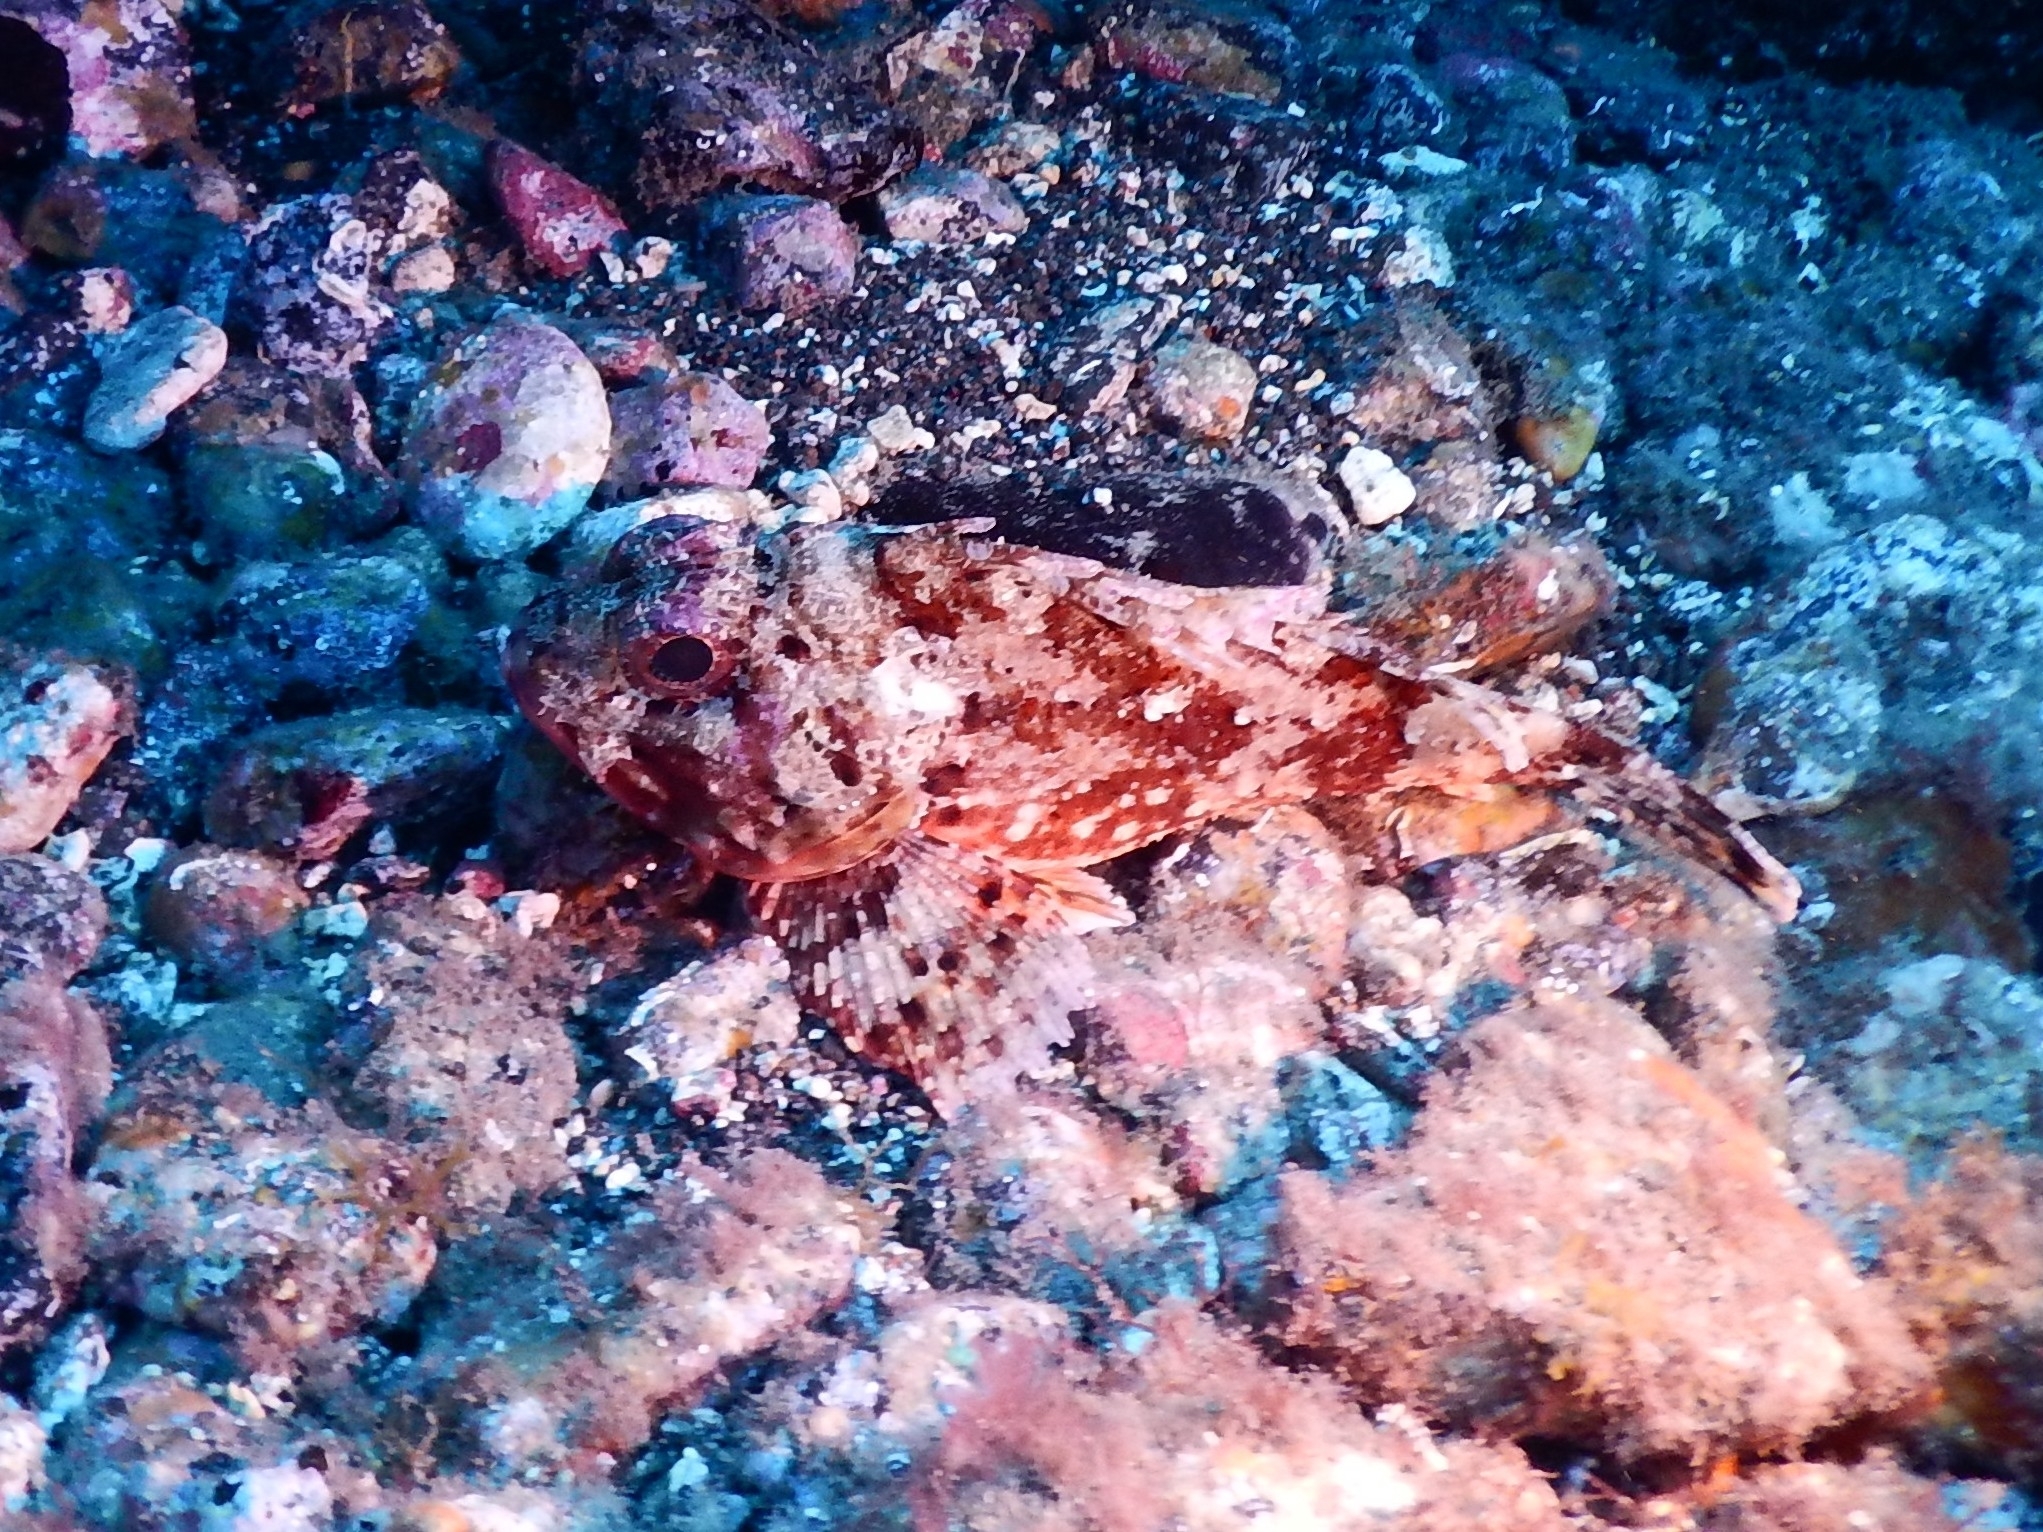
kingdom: Animalia
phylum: Chordata
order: Scorpaeniformes
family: Scorpaenidae
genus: Scorpaena
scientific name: Scorpaena notata
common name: Small red scorpionfish
